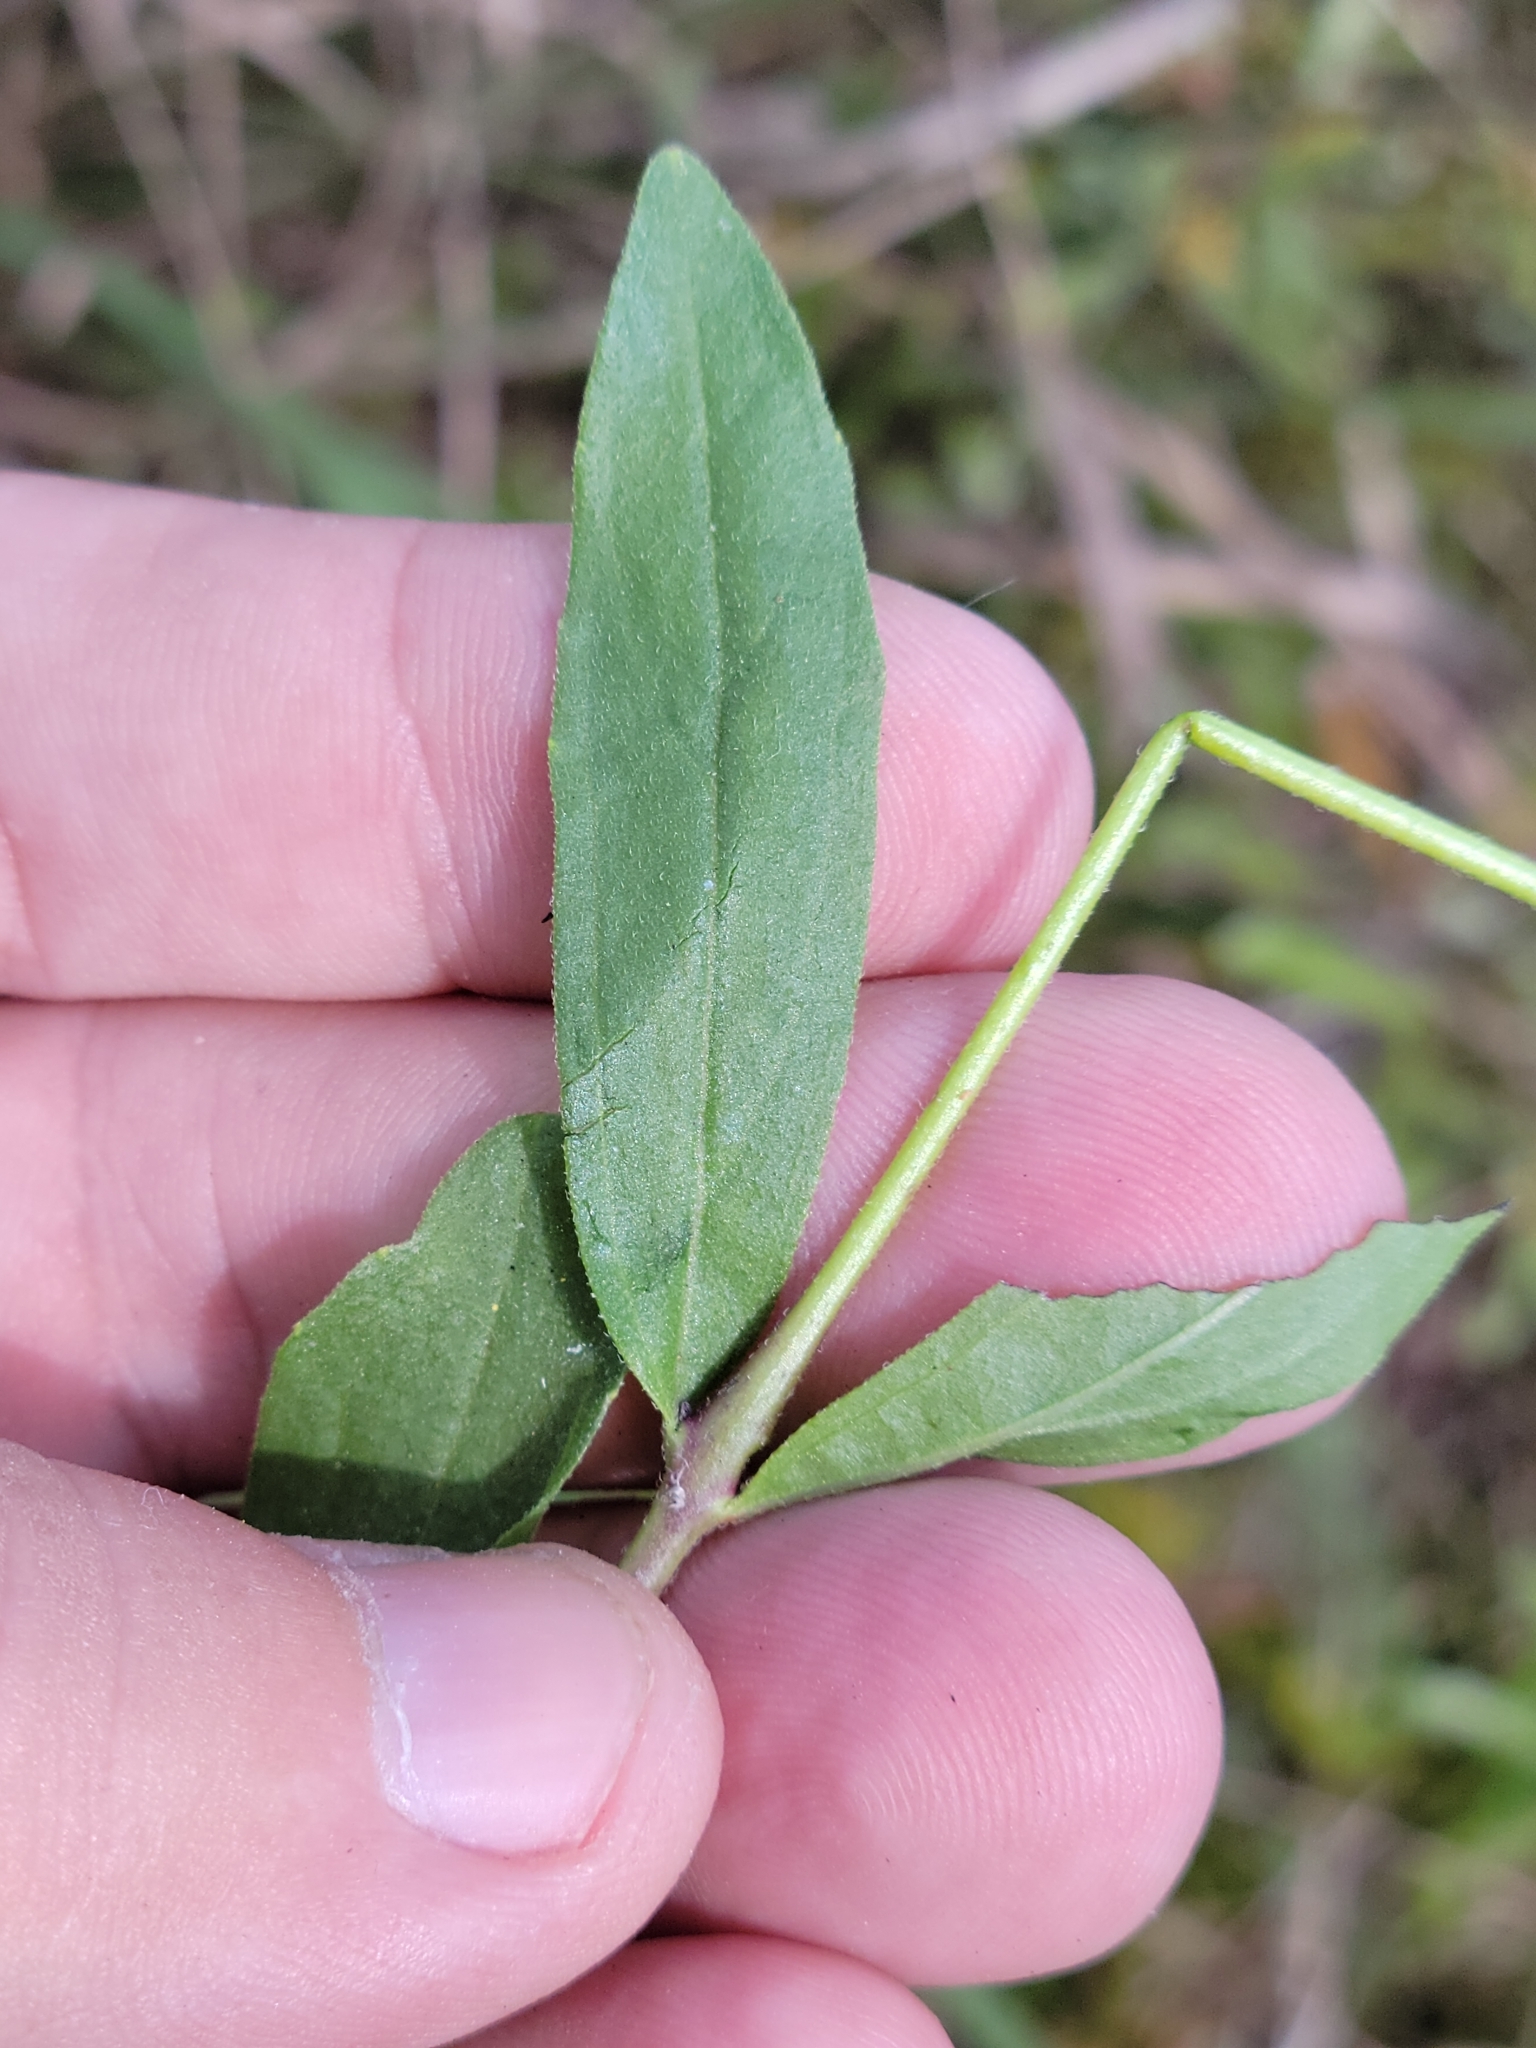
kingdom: Plantae
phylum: Tracheophyta
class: Magnoliopsida
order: Lamiales
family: Orobanchaceae
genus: Buchnera
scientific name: Buchnera floridana
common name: Florida bluehearts
